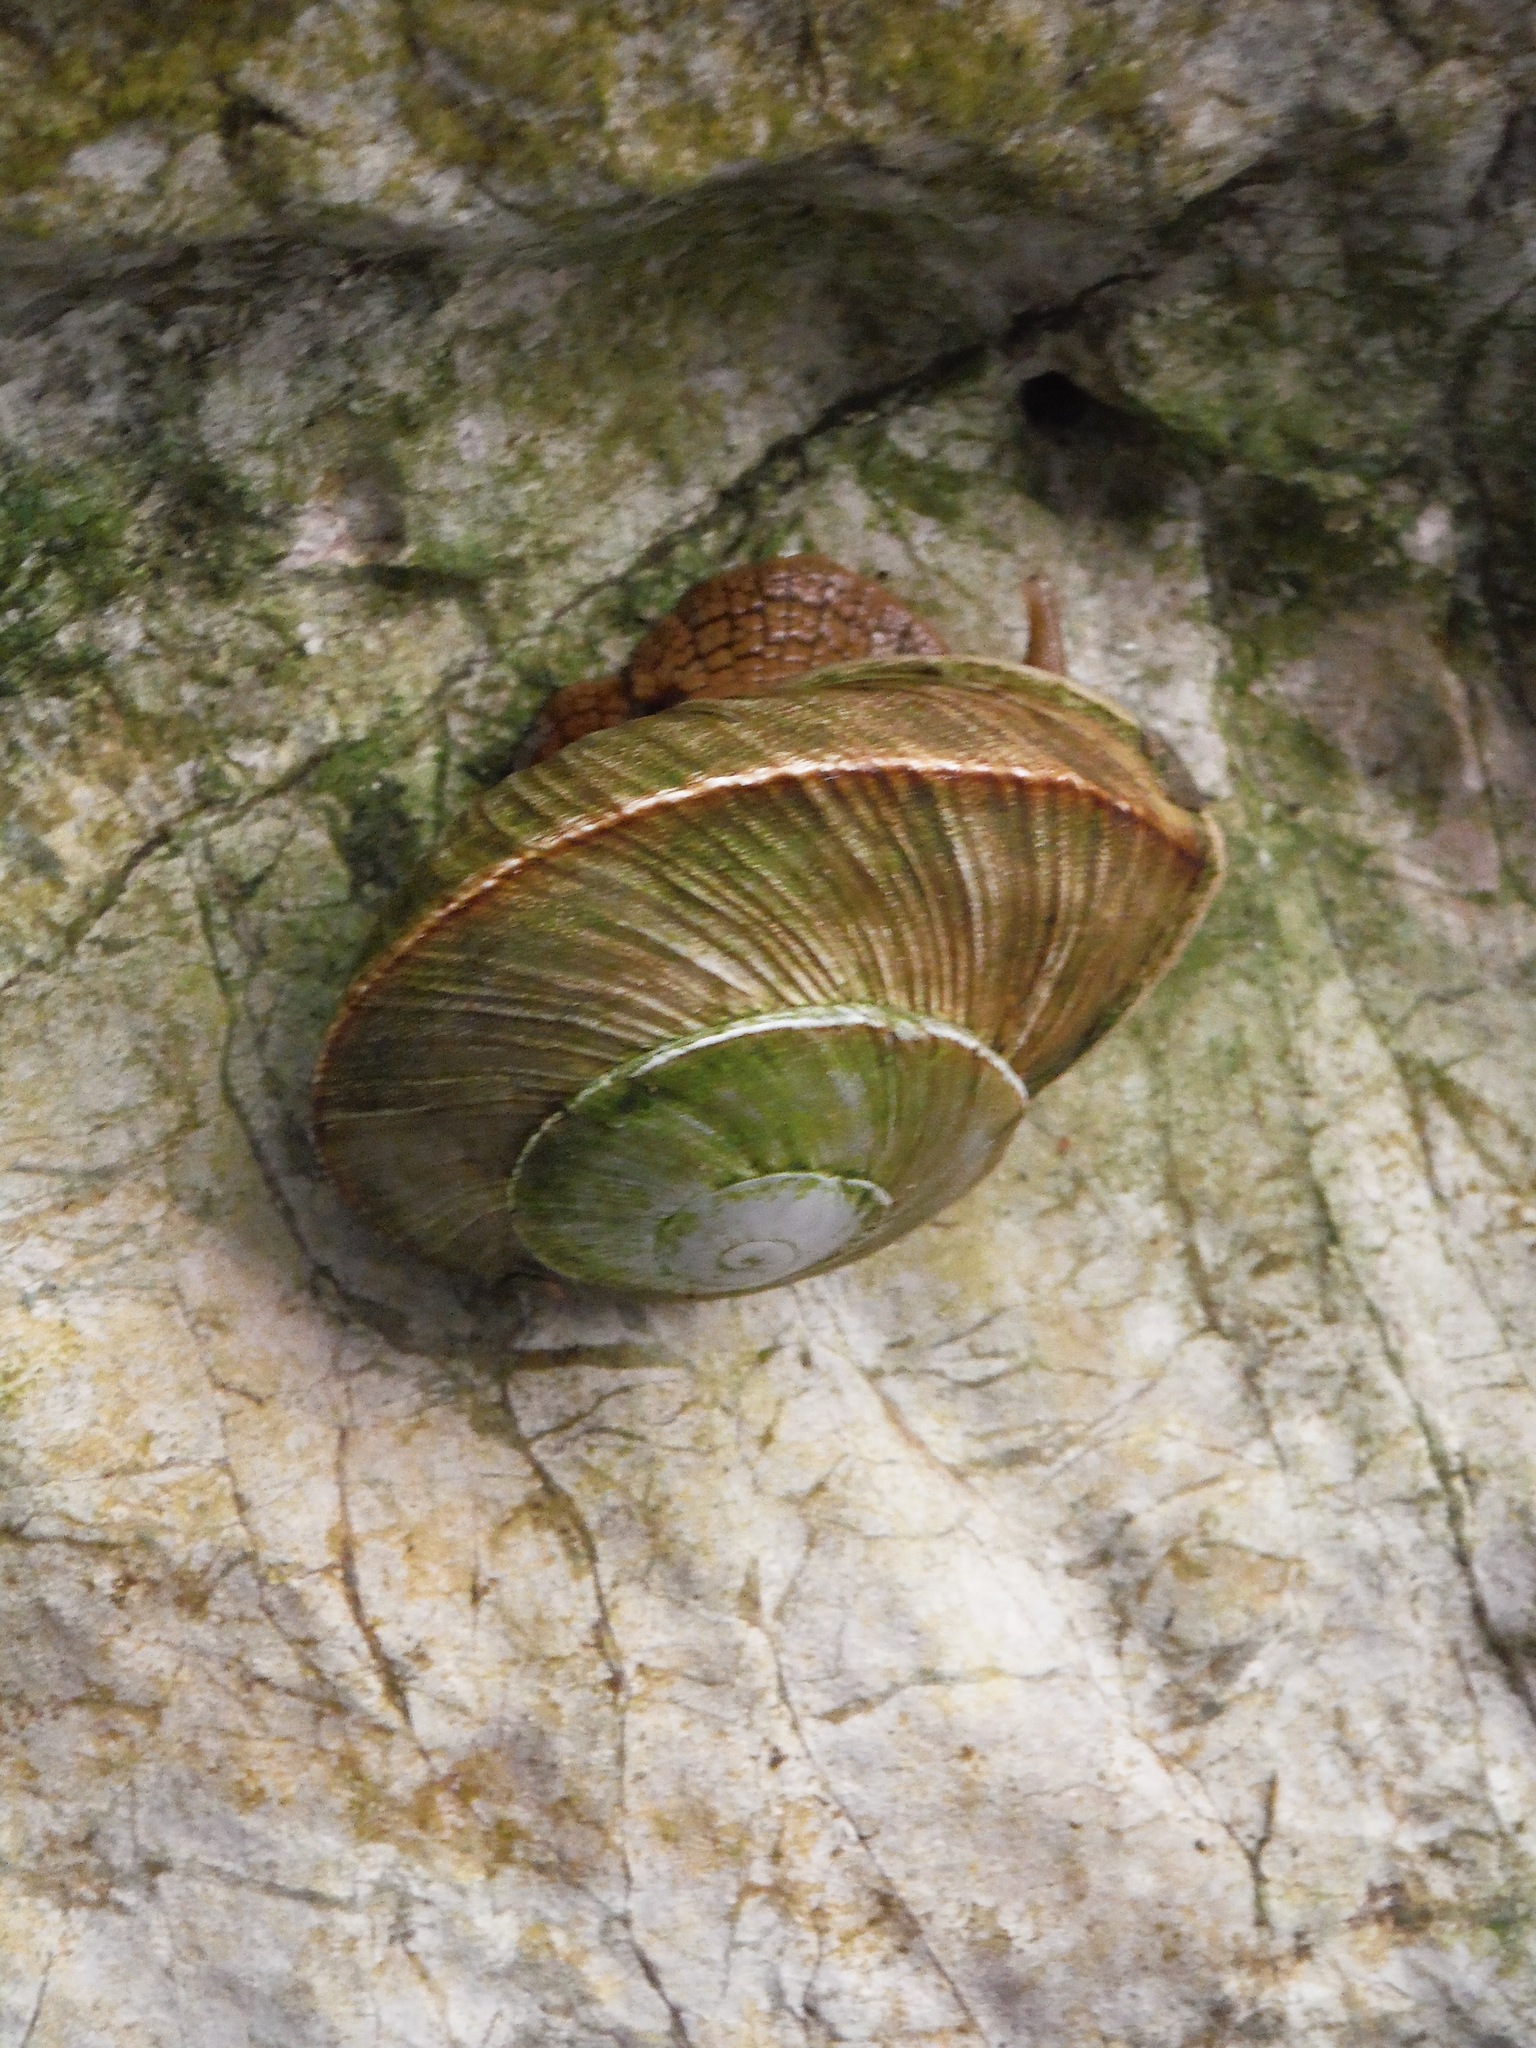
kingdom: Animalia
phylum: Mollusca
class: Gastropoda
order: Stylommatophora
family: Sagdidae
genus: Hispaniolana
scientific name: Hispaniolana obliterata
